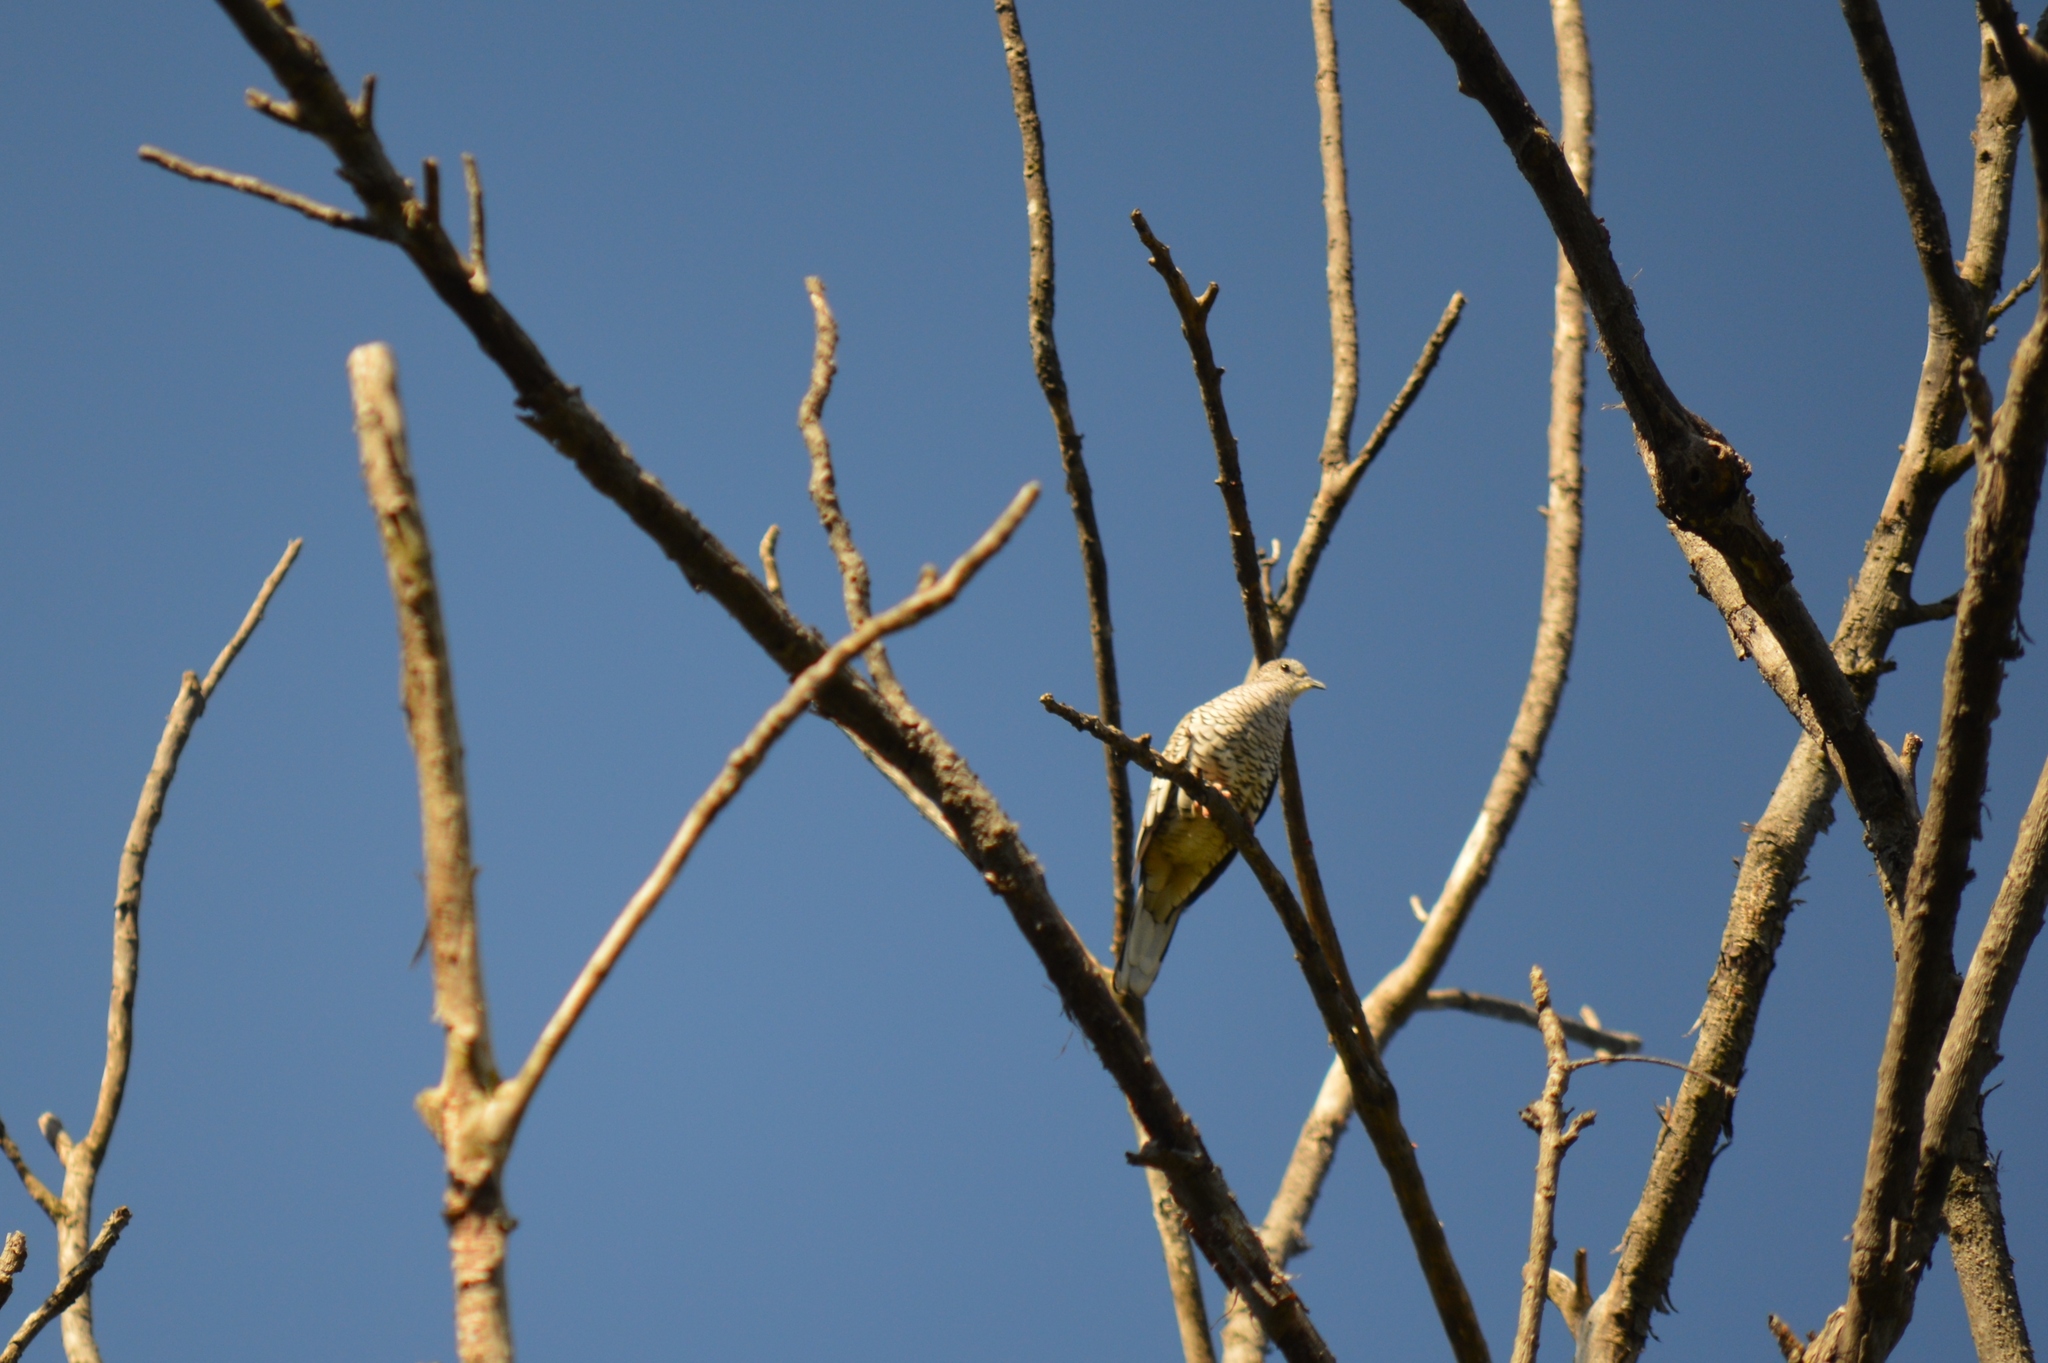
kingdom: Animalia
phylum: Chordata
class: Aves
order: Columbiformes
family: Columbidae
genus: Columbina
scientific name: Columbina squammata
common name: Scaled dove
